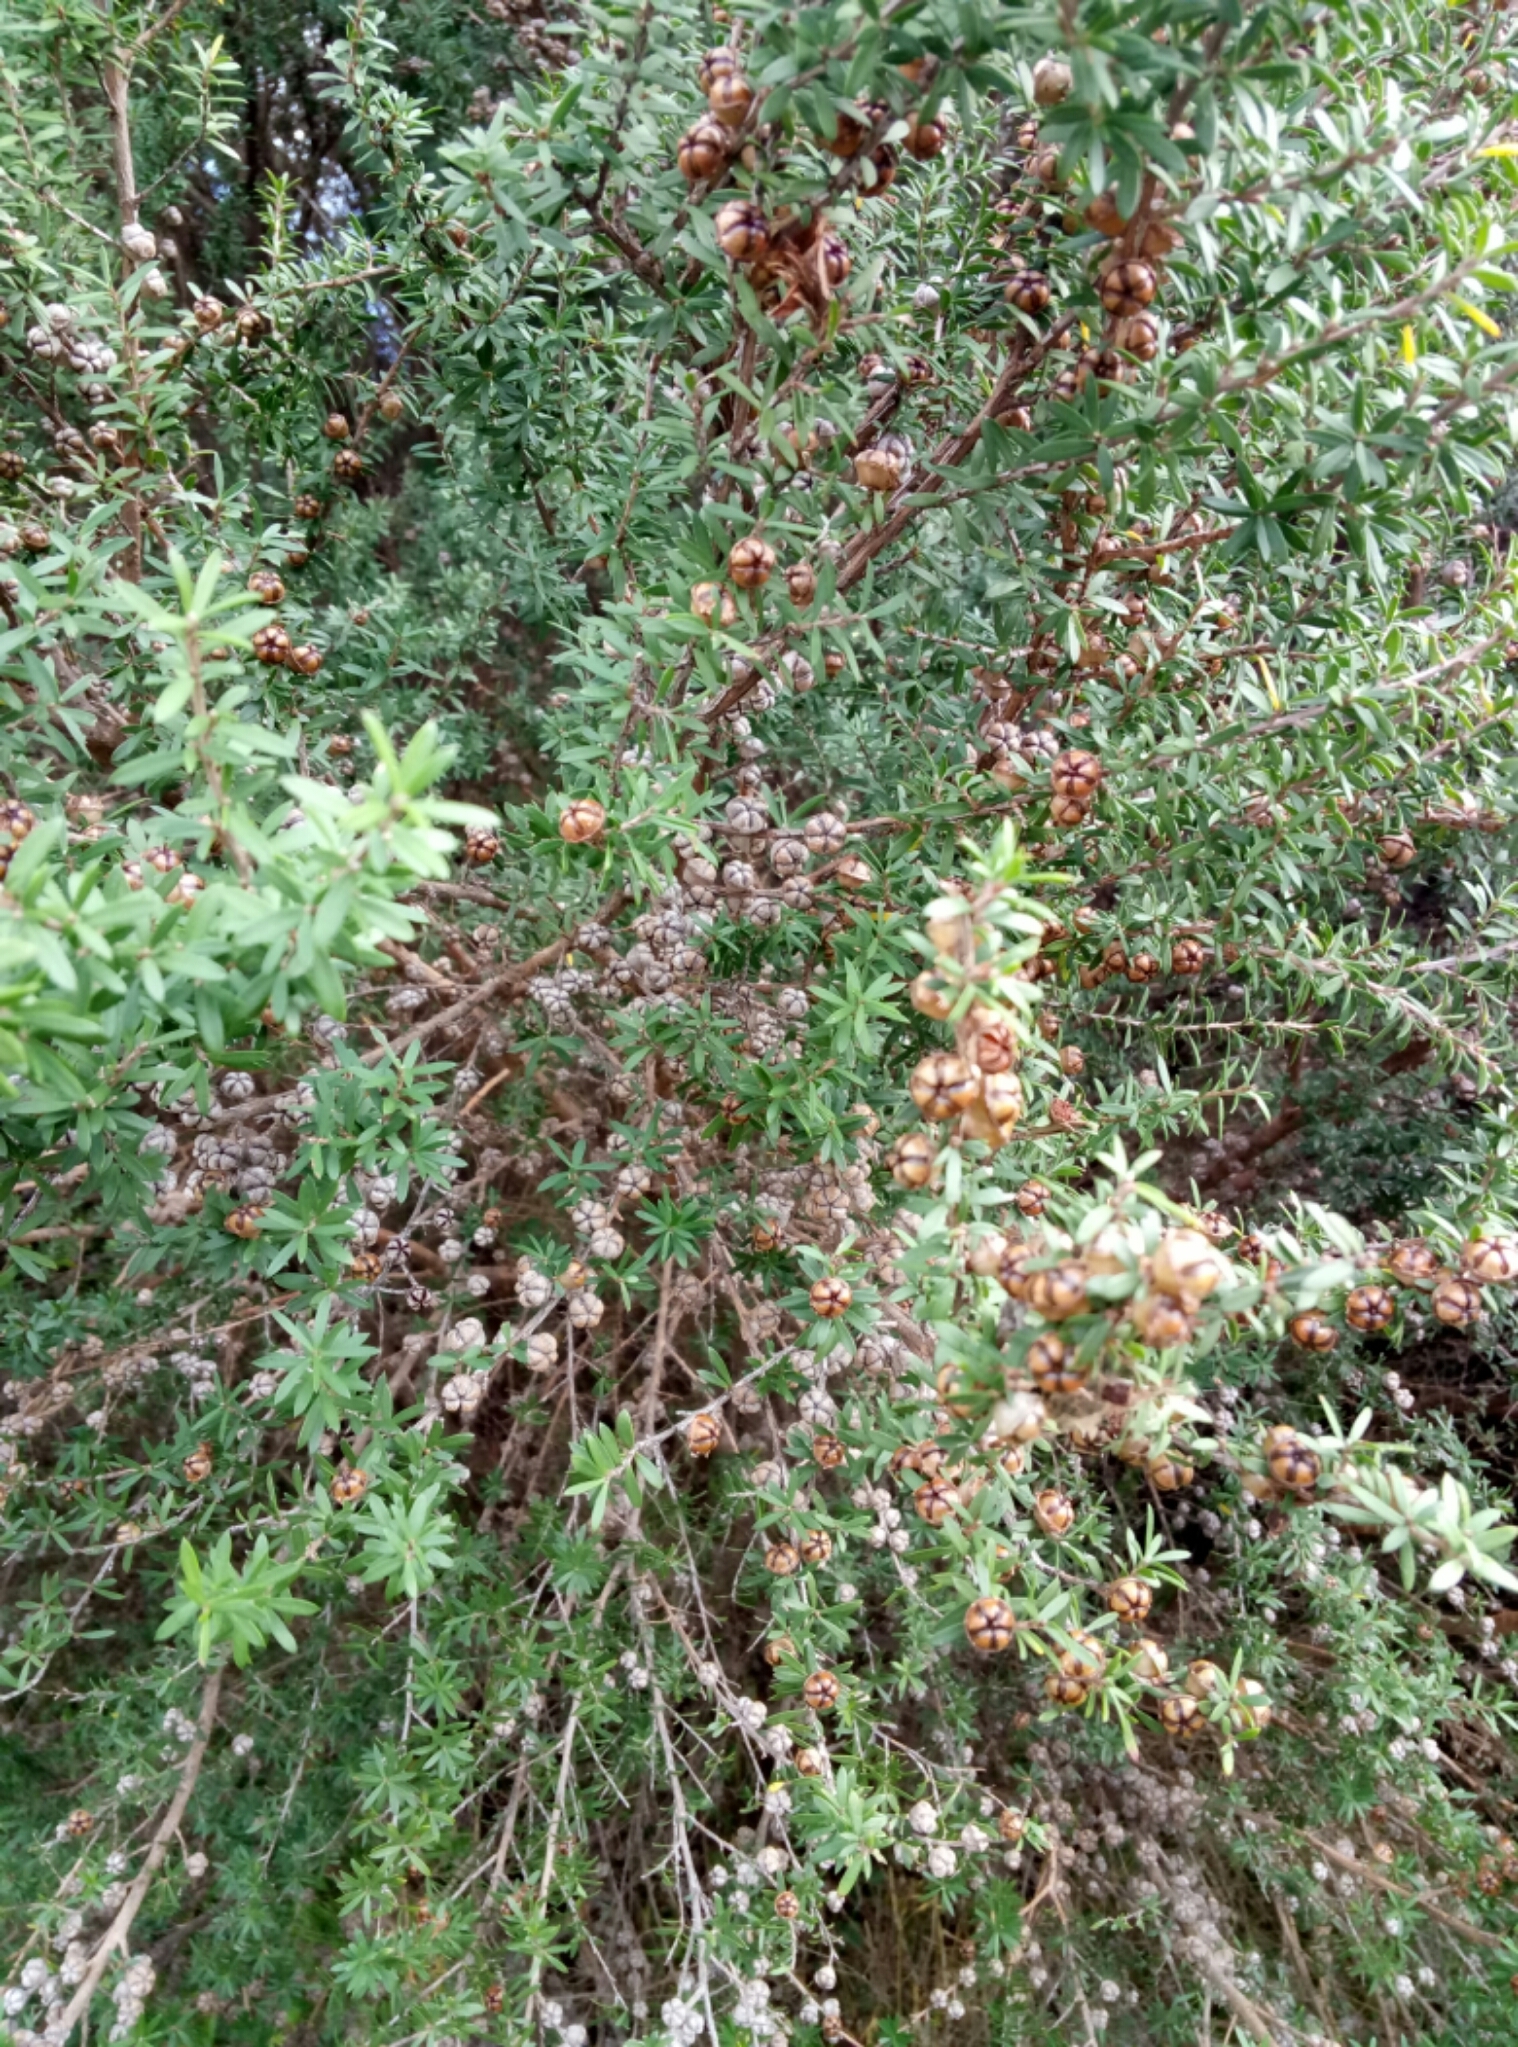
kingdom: Plantae
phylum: Tracheophyta
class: Magnoliopsida
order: Myrtales
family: Myrtaceae
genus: Leptospermum
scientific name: Leptospermum scoparium
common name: Broom tea-tree
